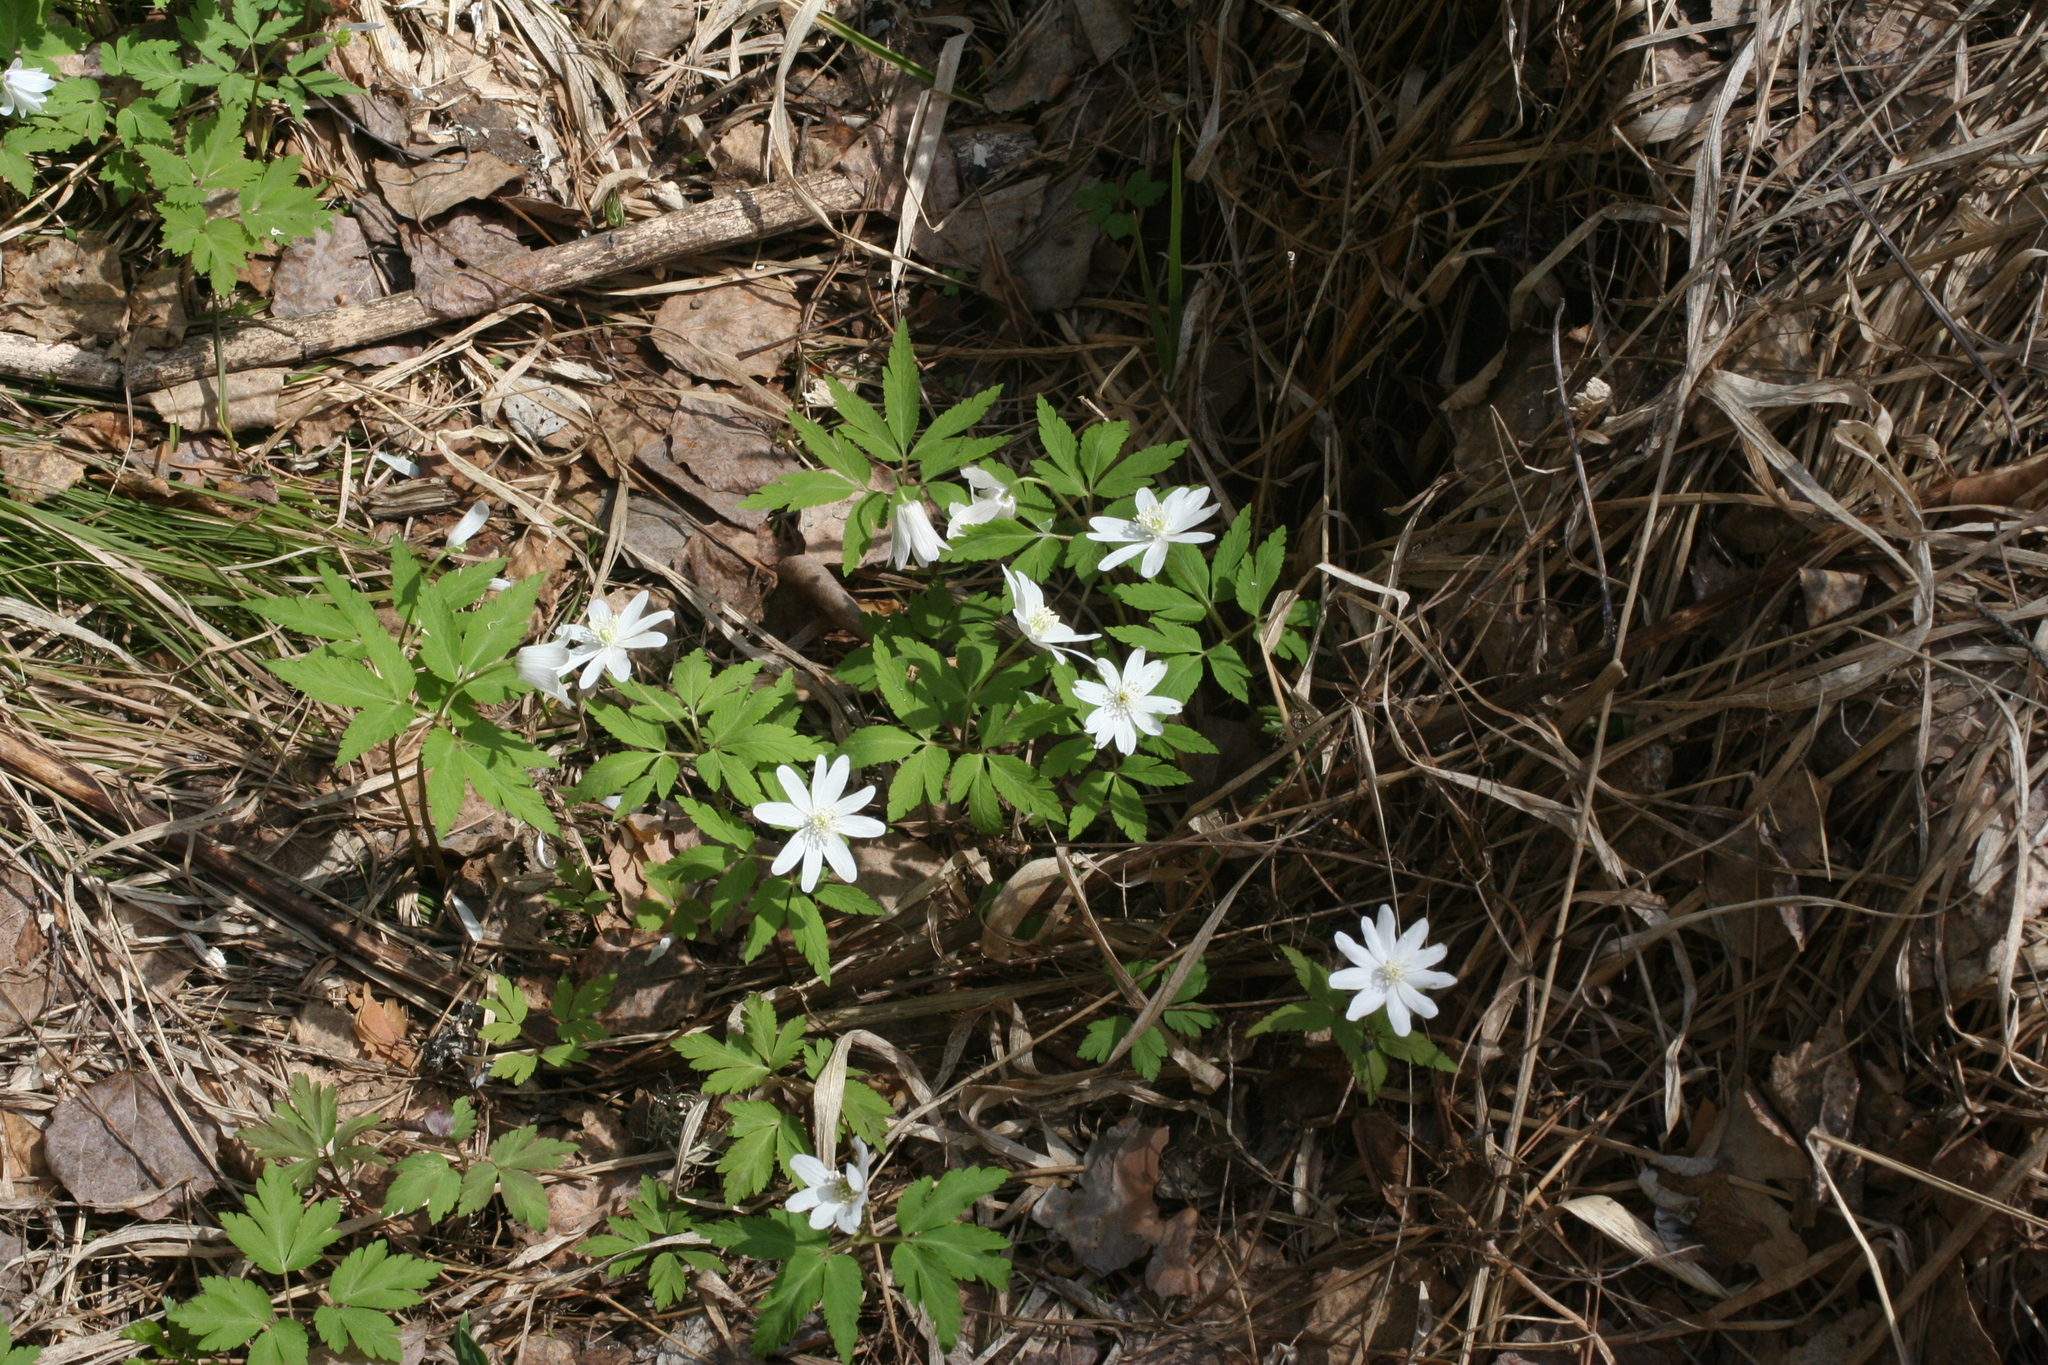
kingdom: Plantae
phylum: Tracheophyta
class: Magnoliopsida
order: Ranunculales
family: Ranunculaceae
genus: Anemone
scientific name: Anemone altaica
